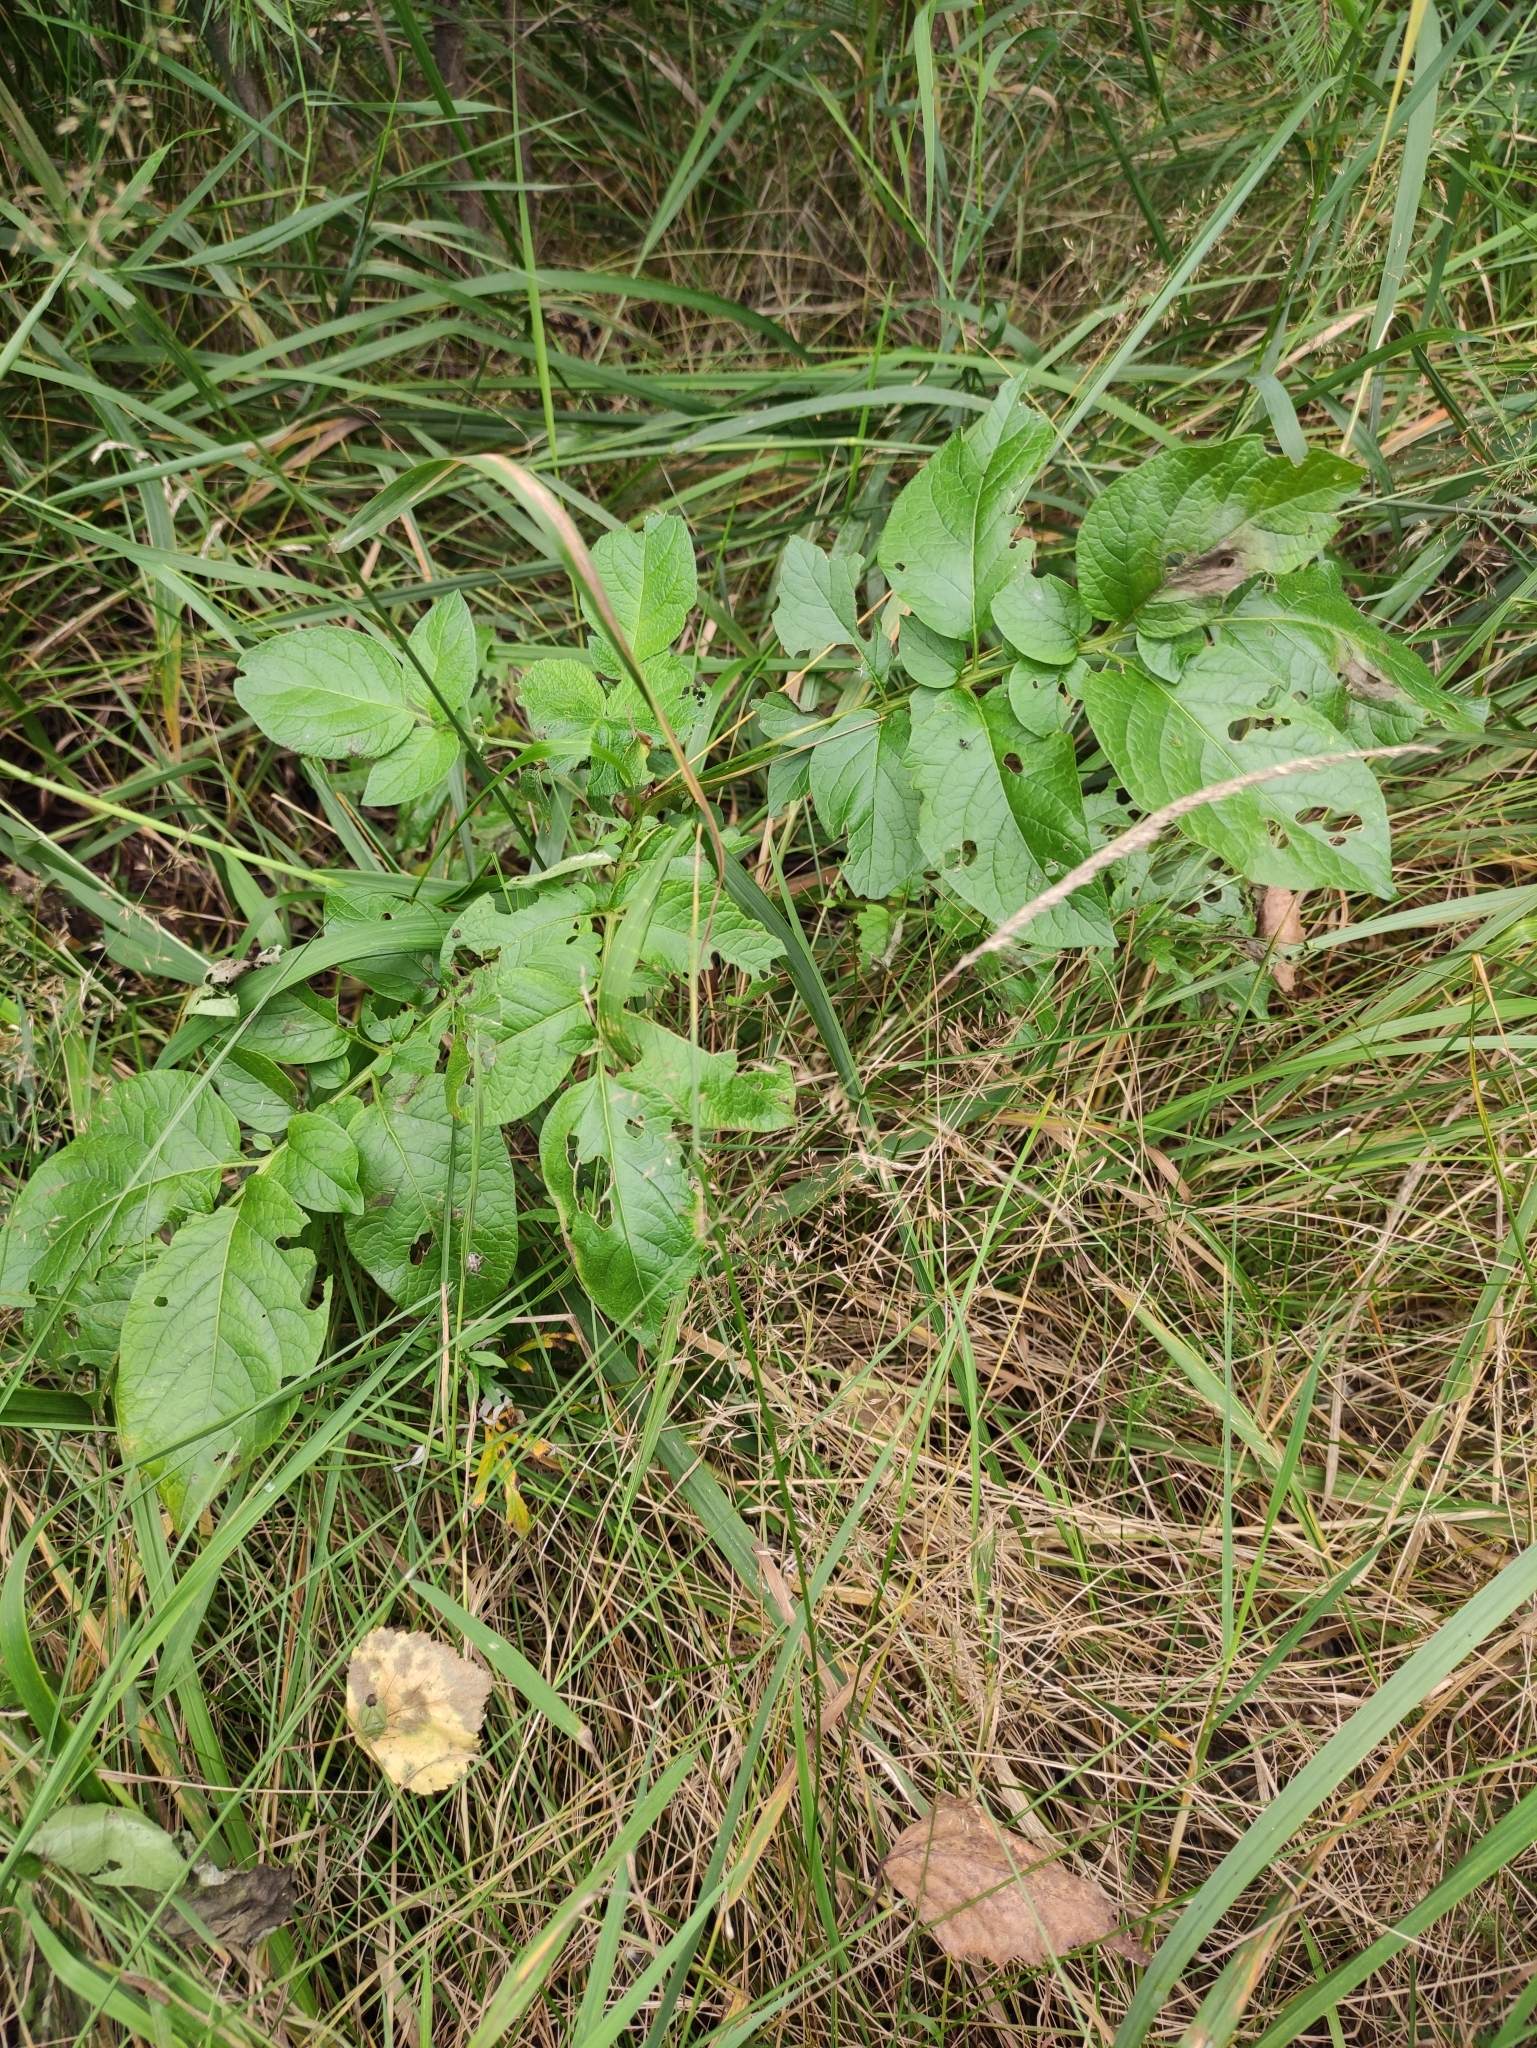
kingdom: Plantae
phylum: Tracheophyta
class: Magnoliopsida
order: Solanales
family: Solanaceae
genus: Solanum
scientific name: Solanum tuberosum
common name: Potato
